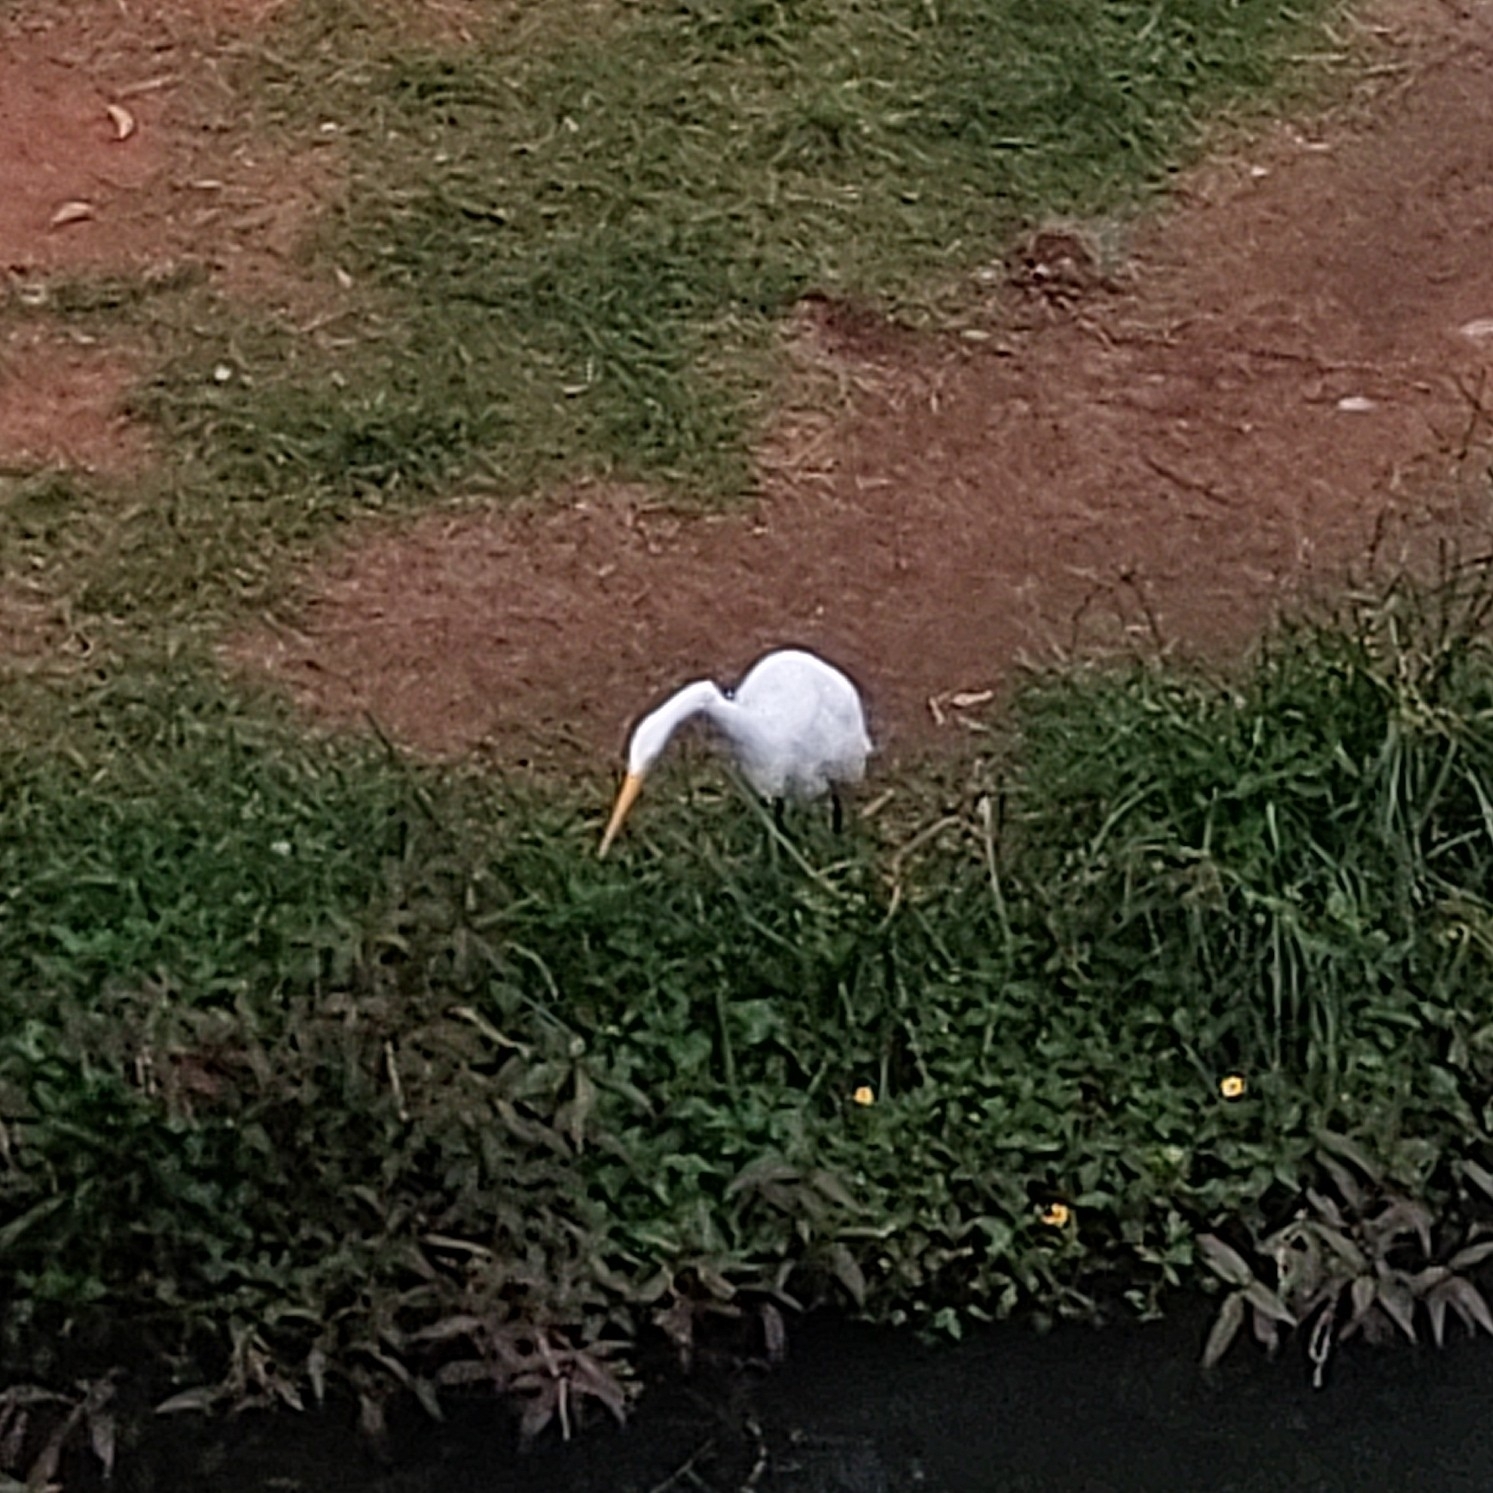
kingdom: Animalia
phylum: Chordata
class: Aves
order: Pelecaniformes
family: Ardeidae
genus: Ardea
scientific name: Ardea alba
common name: Great egret
